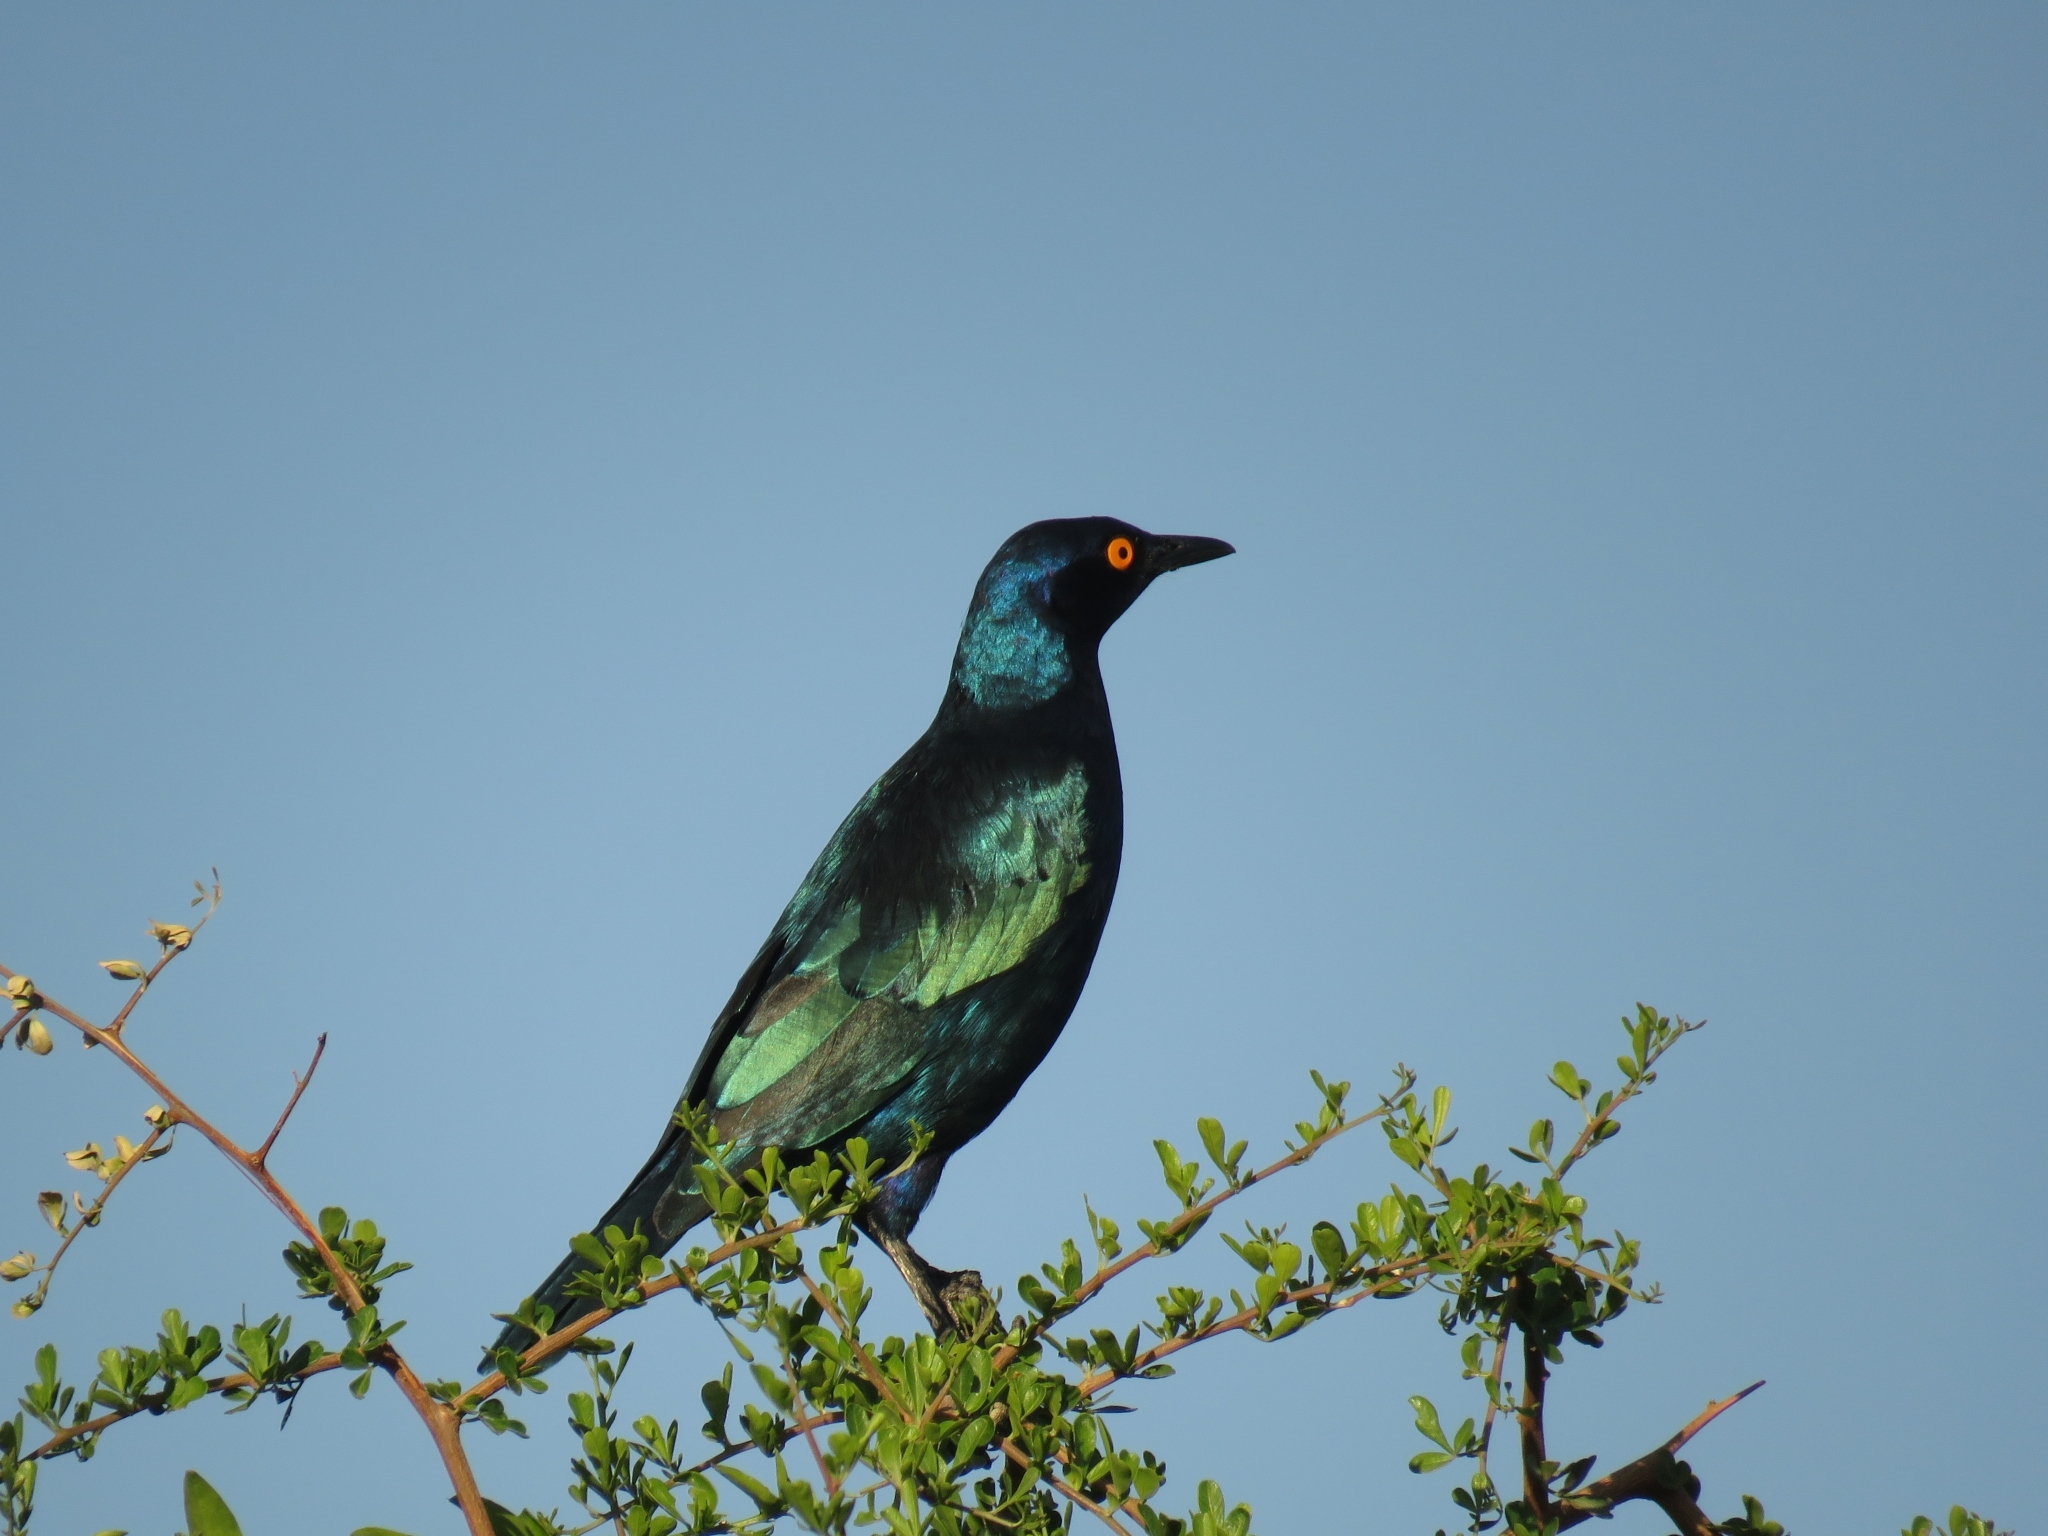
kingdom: Animalia
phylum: Chordata
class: Aves
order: Passeriformes
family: Sturnidae
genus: Lamprotornis
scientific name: Lamprotornis nitens
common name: Cape starling
